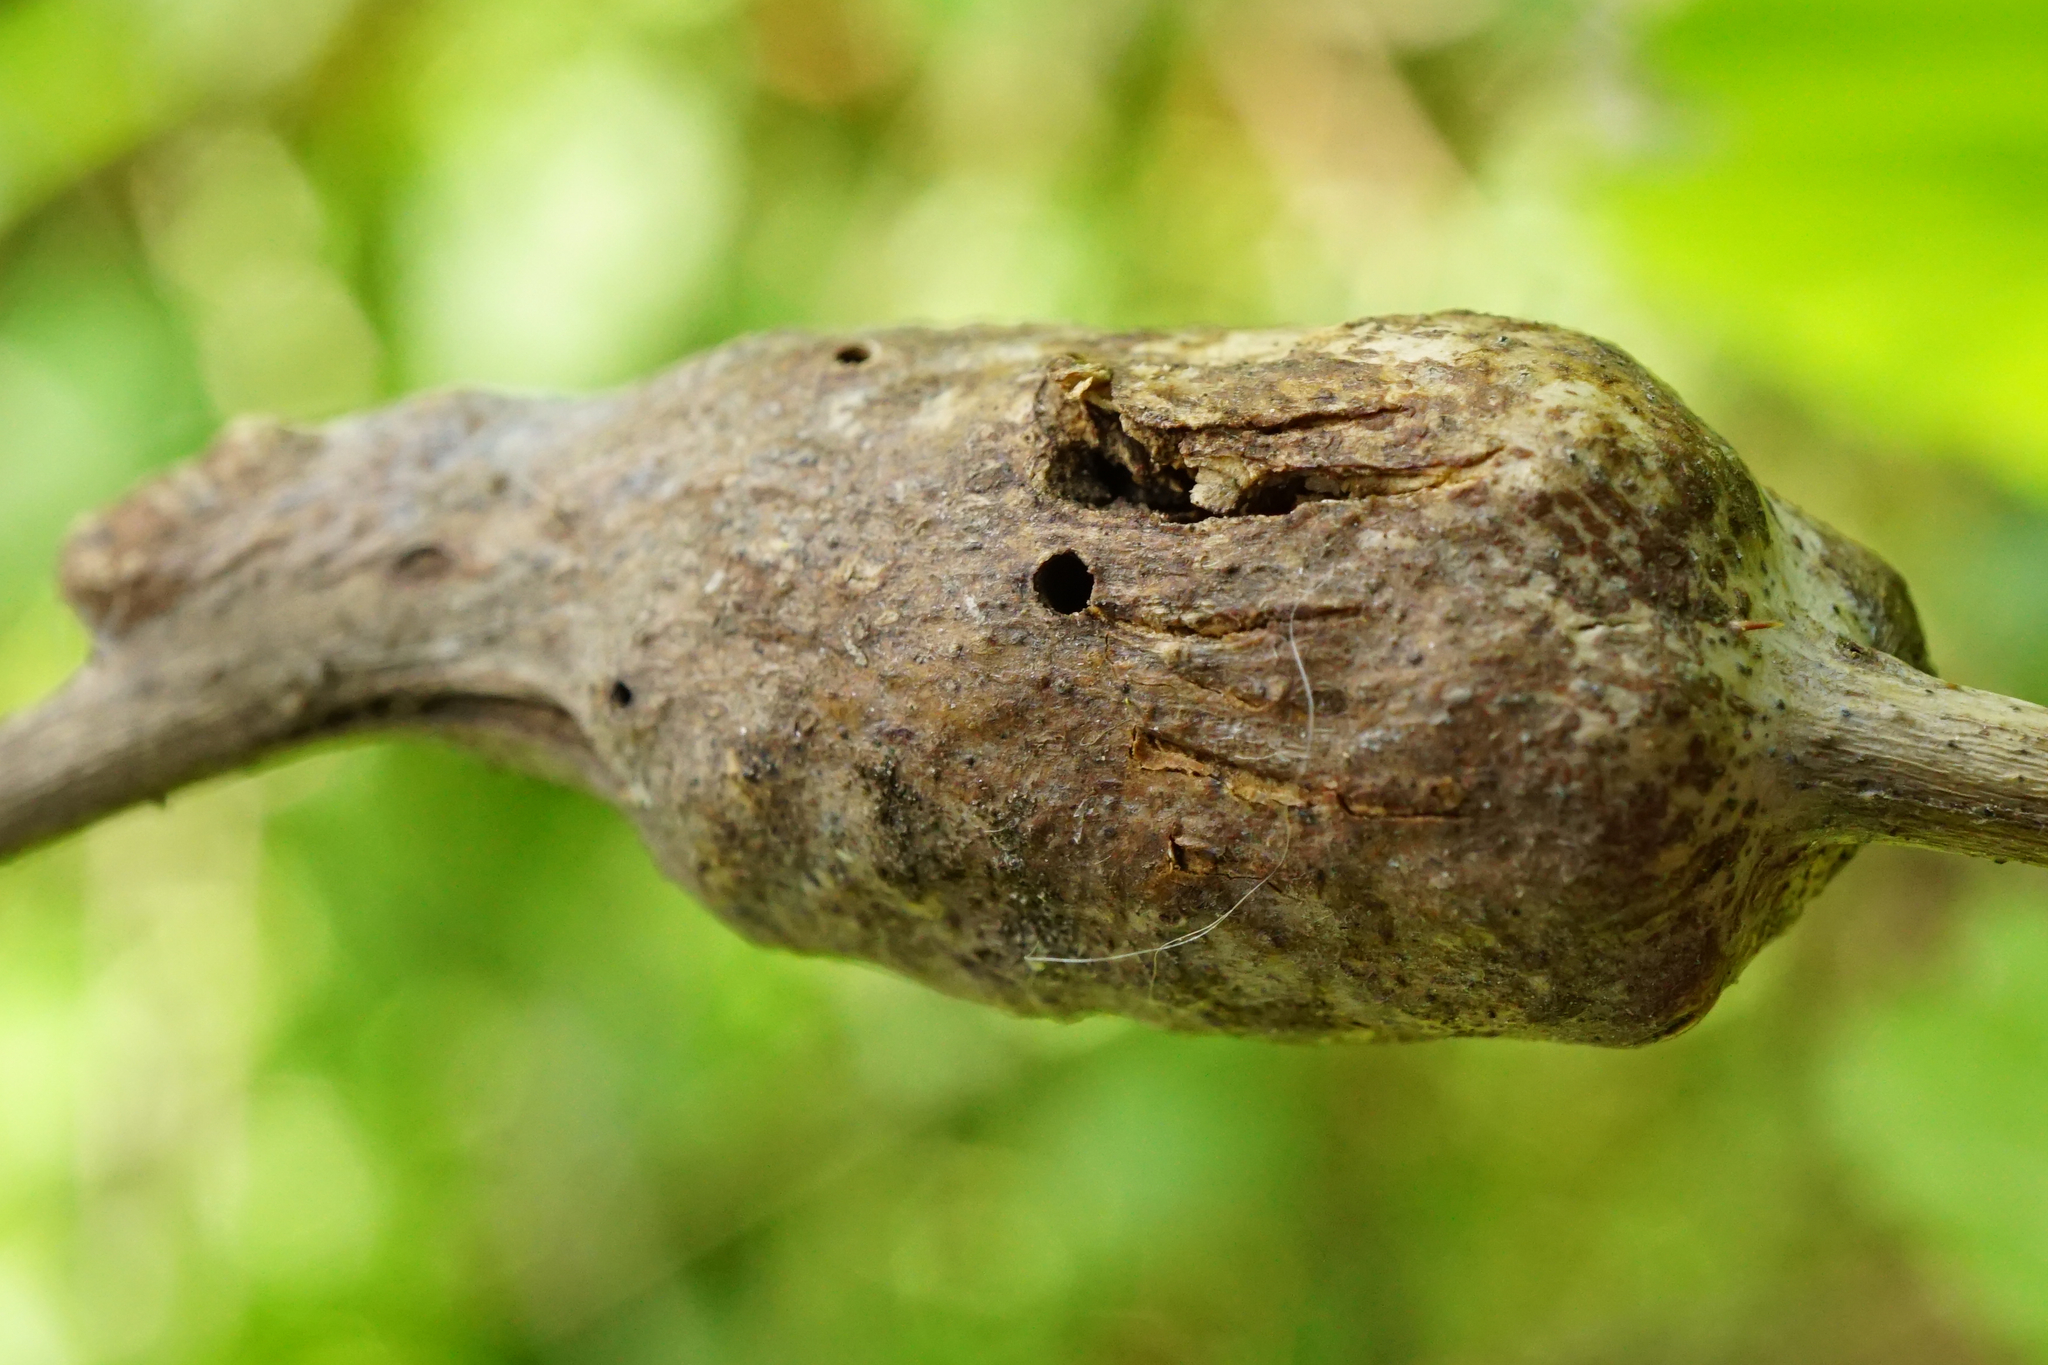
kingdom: Animalia
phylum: Arthropoda
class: Insecta
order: Hymenoptera
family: Cynipidae
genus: Diastrophus
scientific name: Diastrophus rubi
